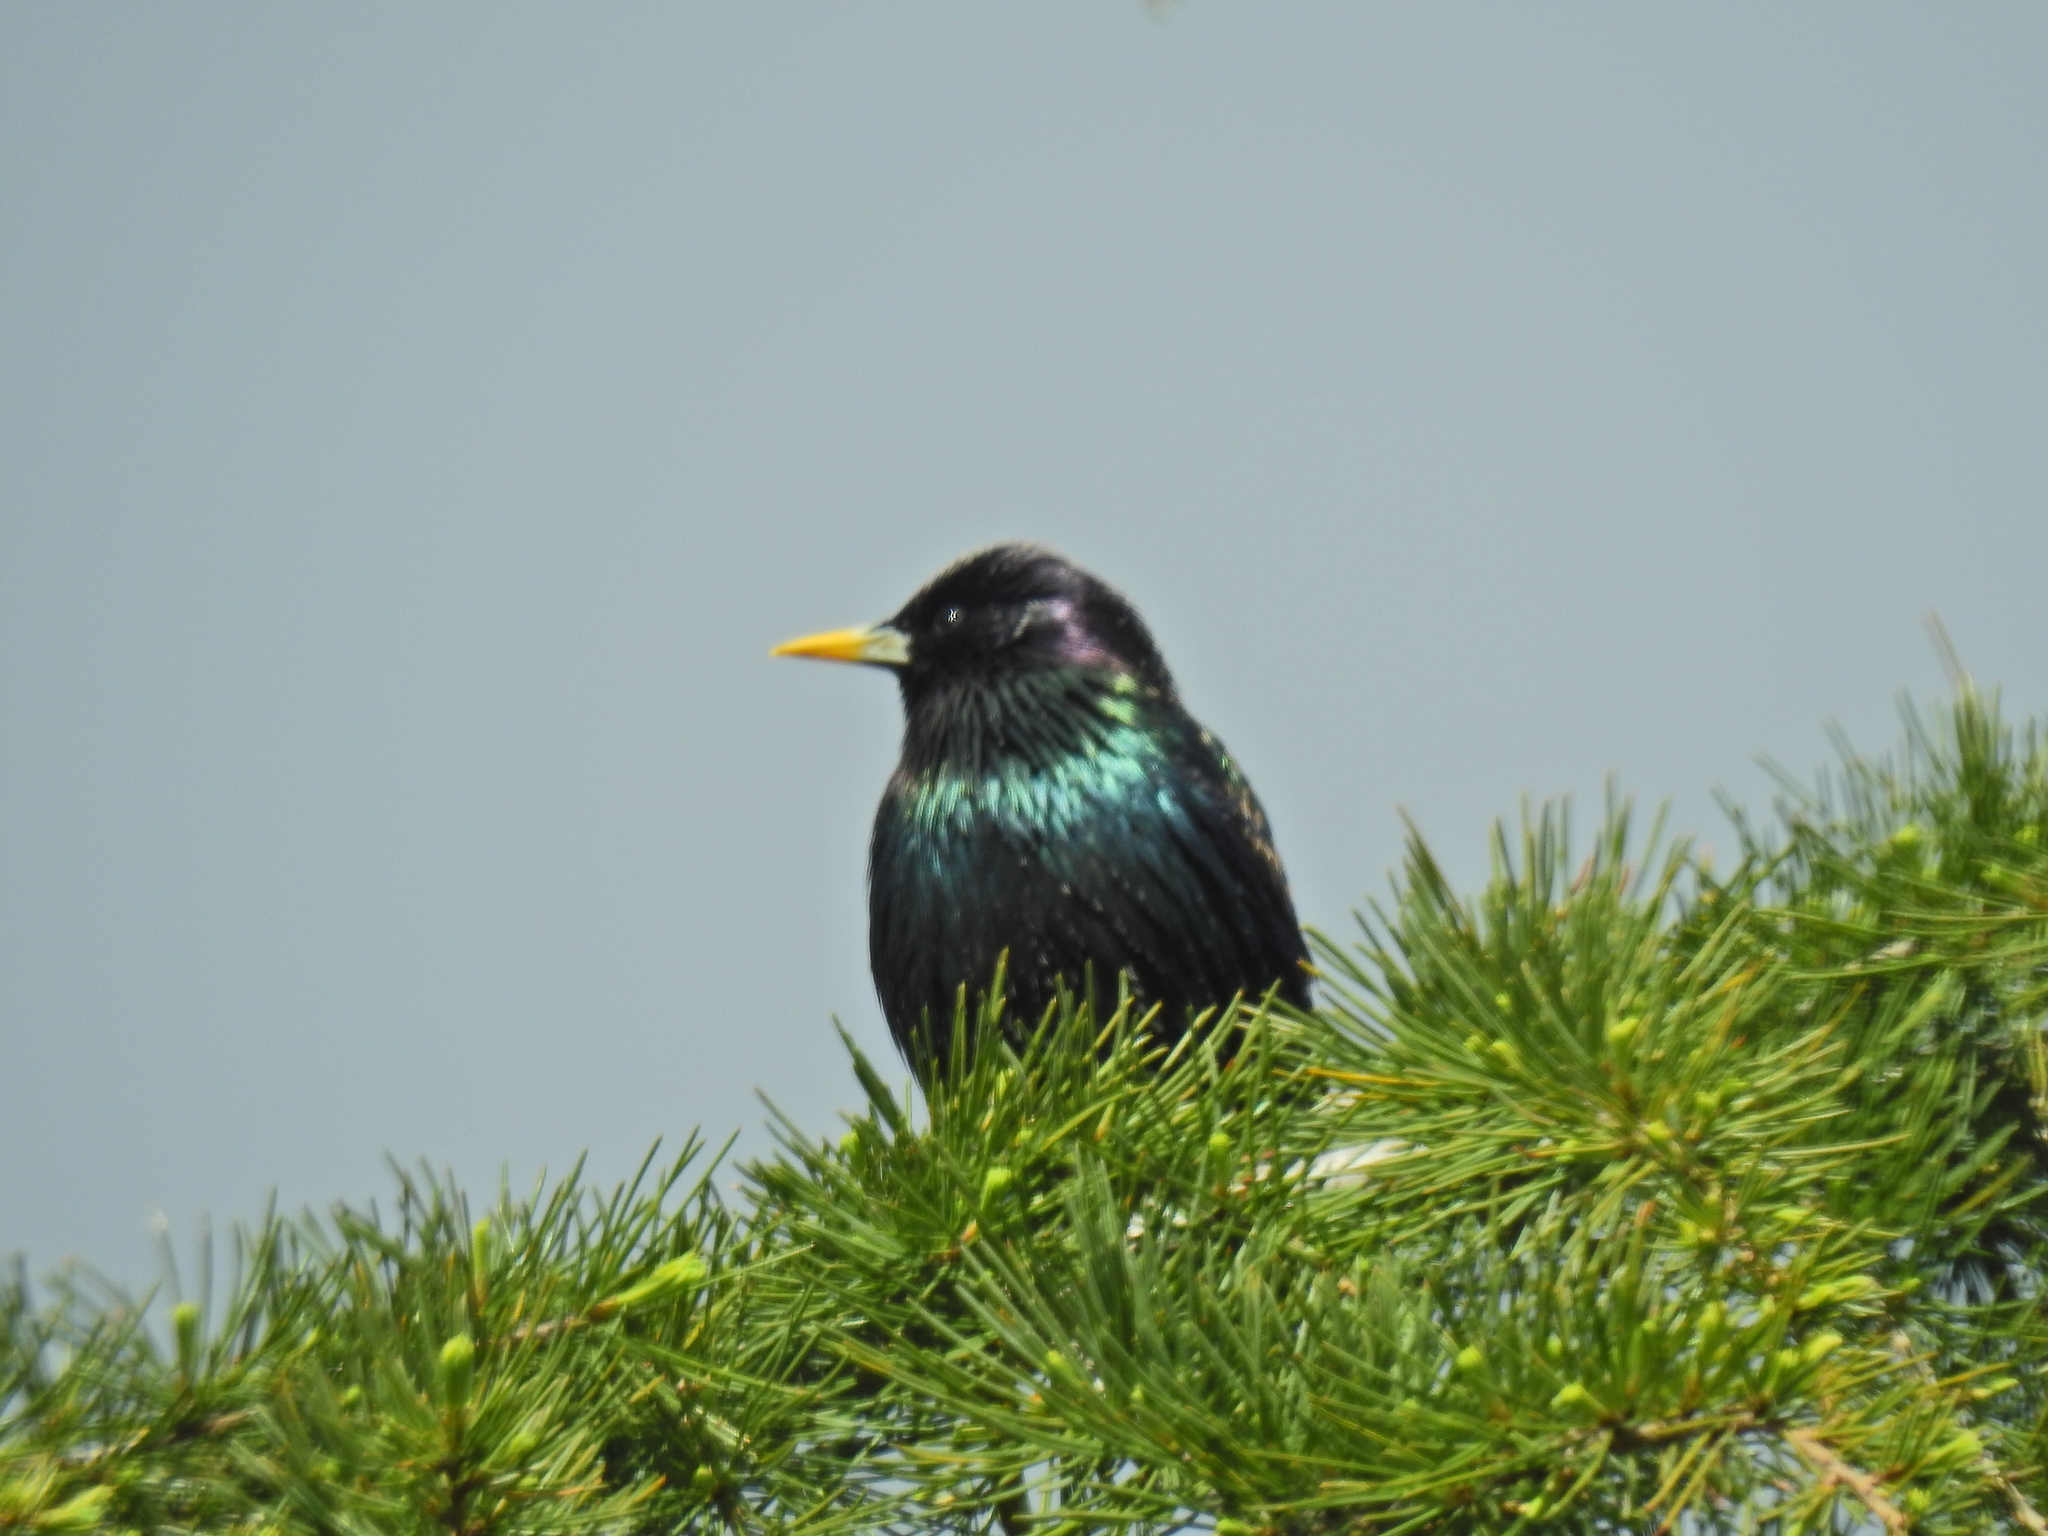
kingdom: Animalia
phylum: Chordata
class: Aves
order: Passeriformes
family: Sturnidae
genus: Sturnus
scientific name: Sturnus vulgaris
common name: Common starling
